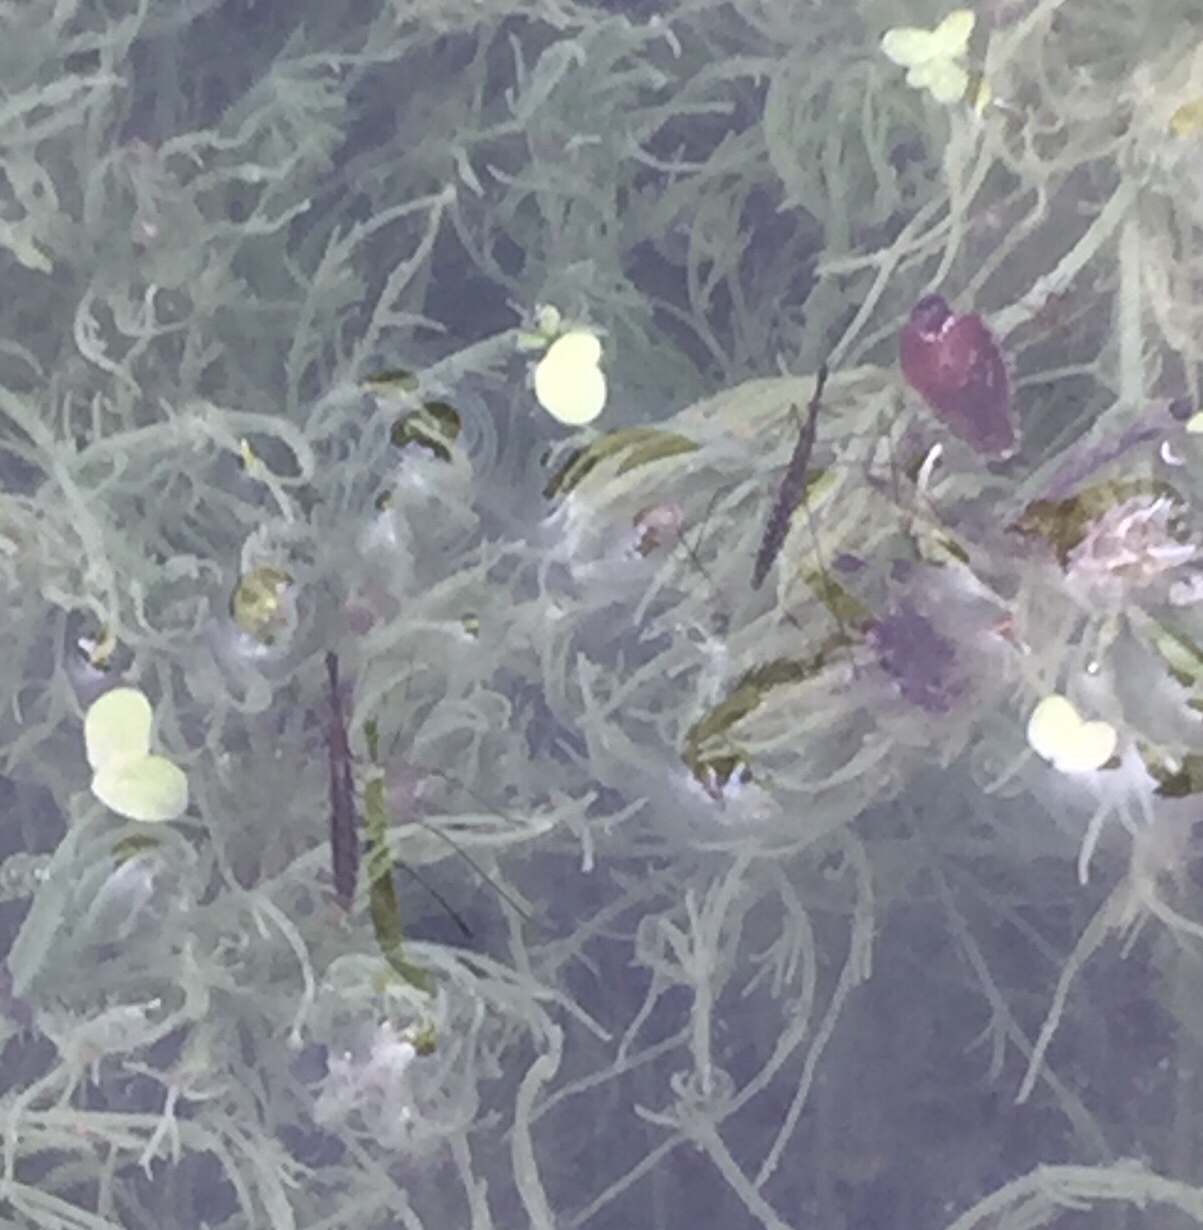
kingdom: Animalia
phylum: Arthropoda
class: Insecta
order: Hemiptera
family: Hydrometridae
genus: Hydrometra
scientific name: Hydrometra stagnorum
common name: Water measurer
